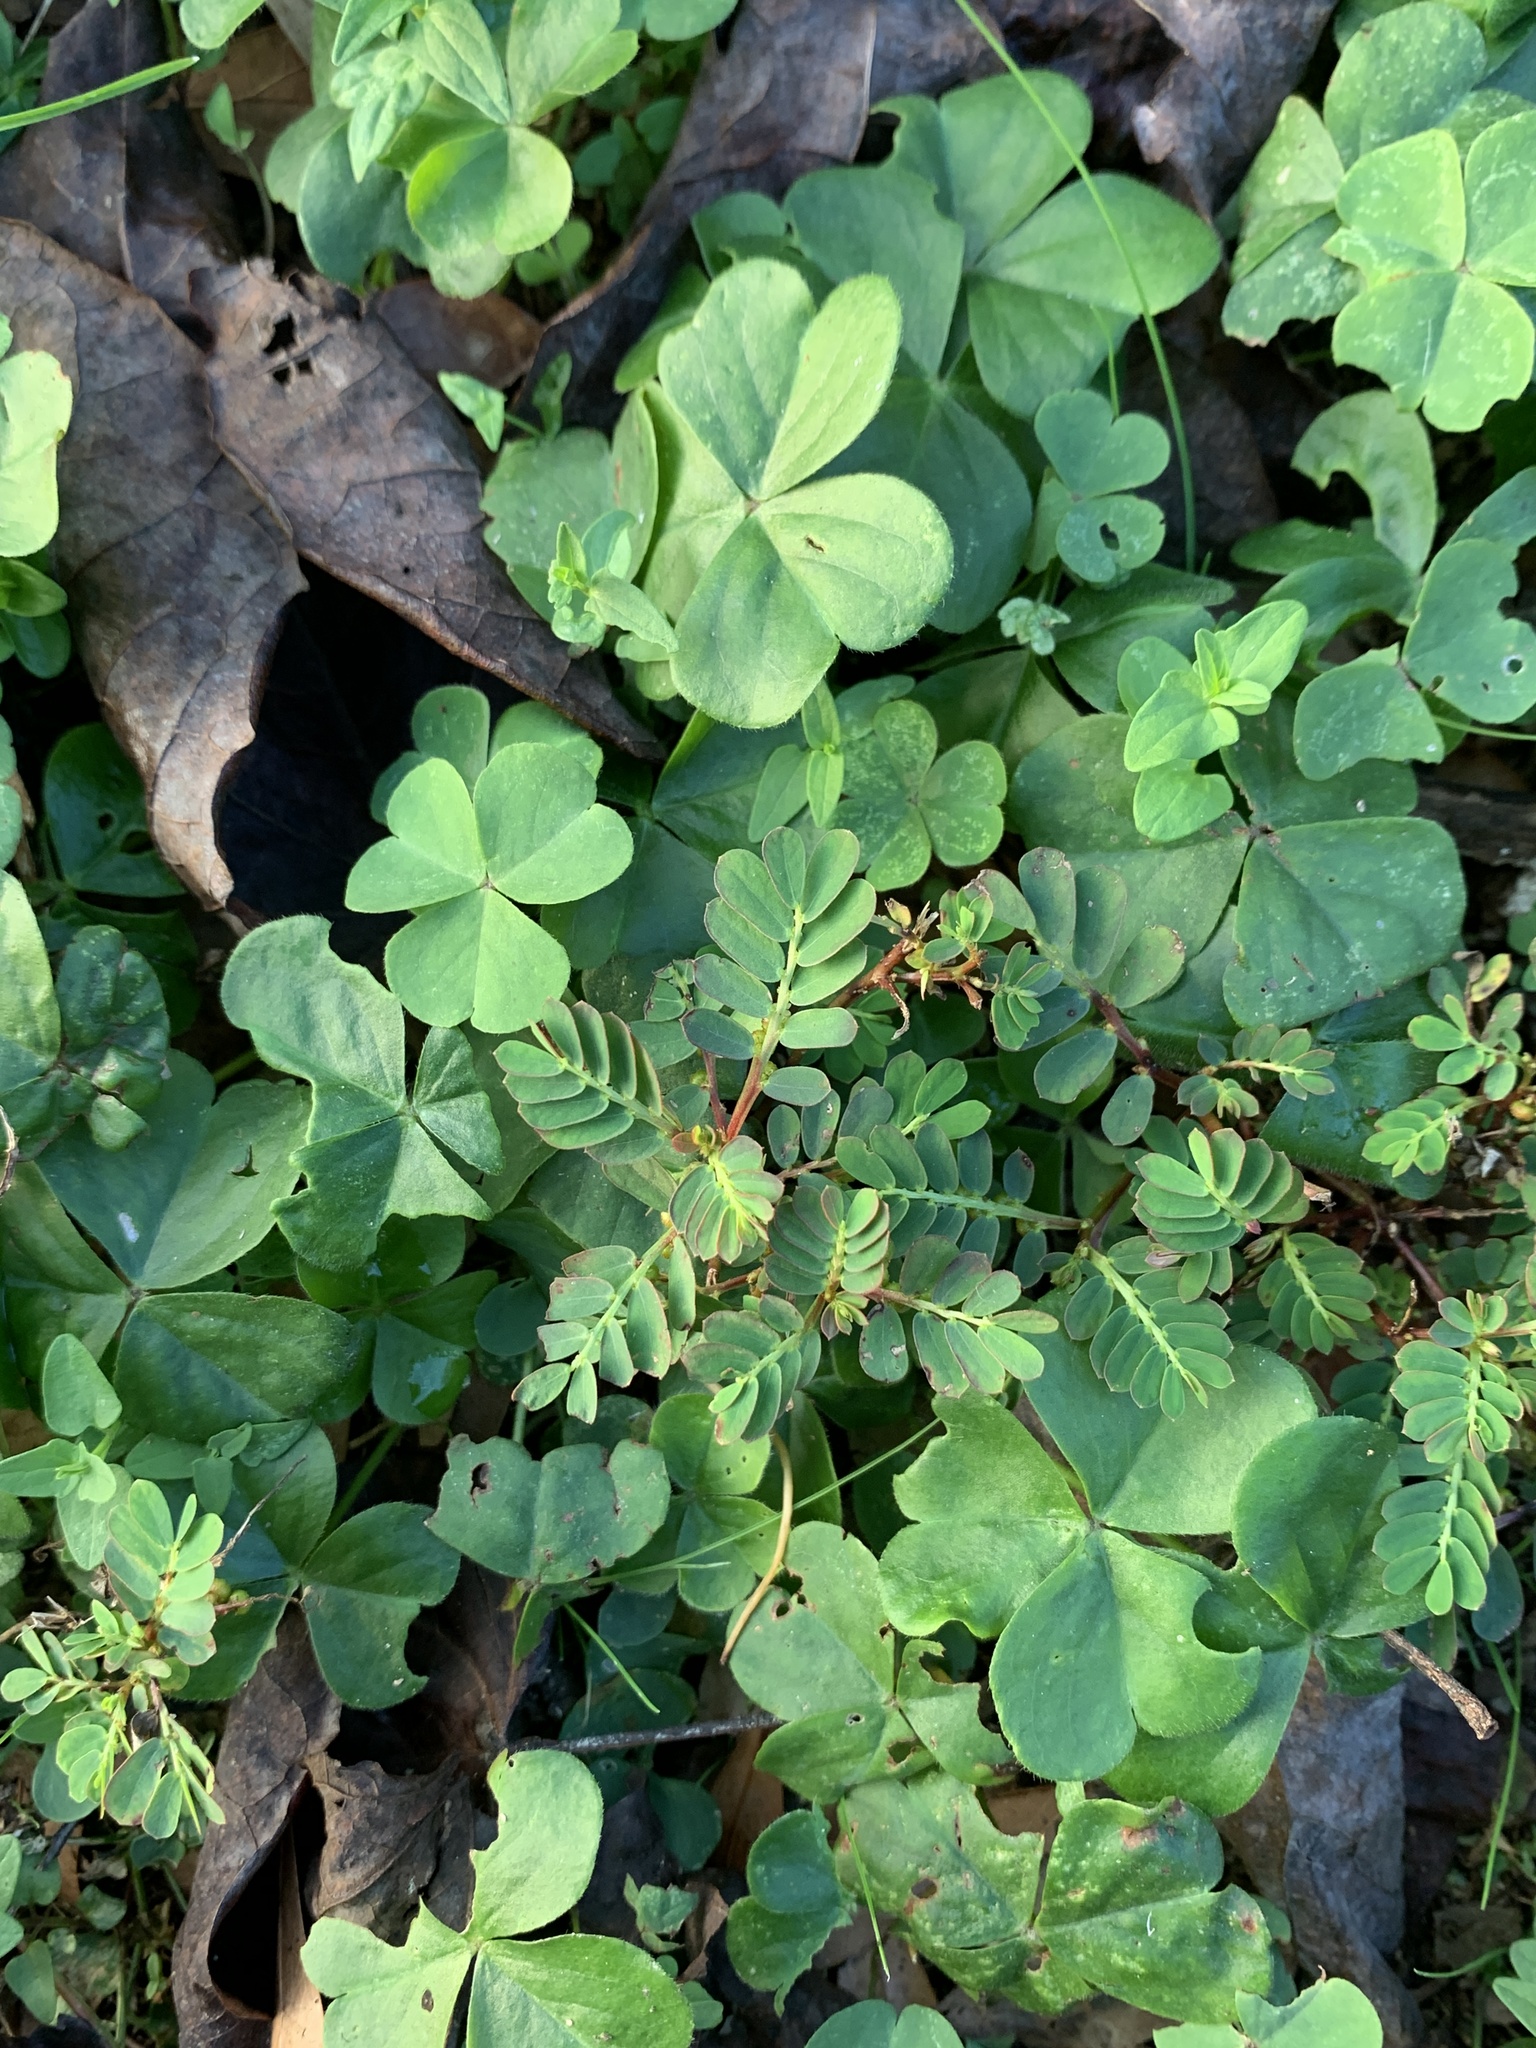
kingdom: Plantae
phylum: Tracheophyta
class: Magnoliopsida
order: Malpighiales
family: Phyllanthaceae
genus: Phyllanthus
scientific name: Phyllanthus urinaria
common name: Chamber bitter
